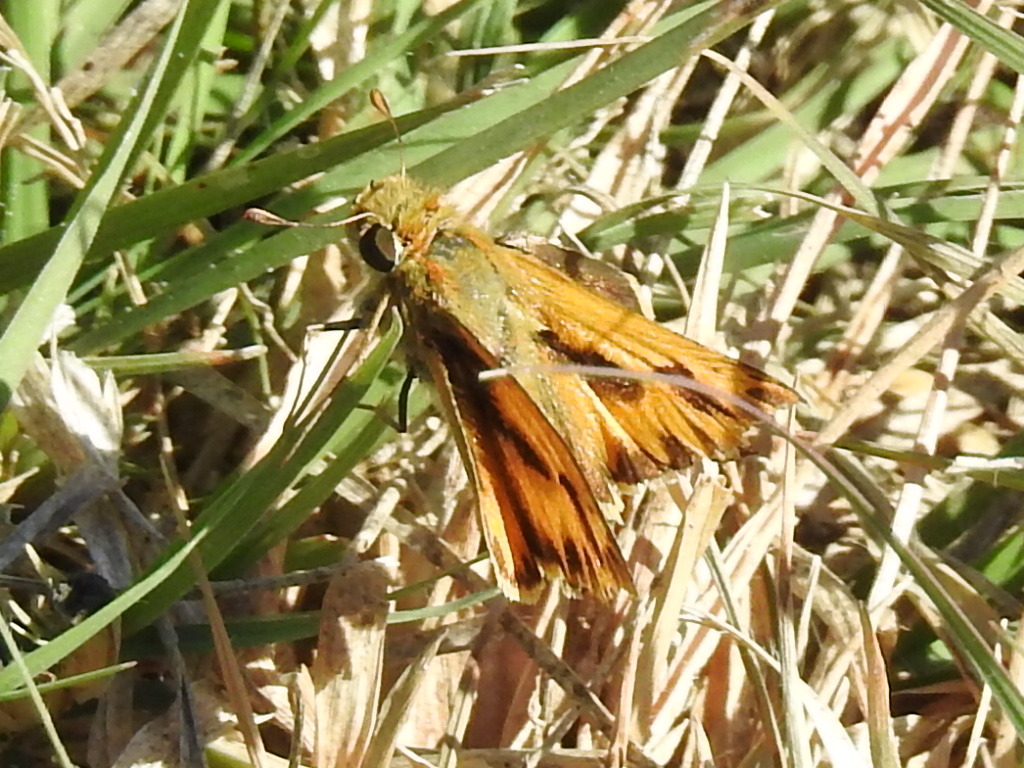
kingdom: Animalia
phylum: Arthropoda
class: Insecta
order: Lepidoptera
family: Hesperiidae
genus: Hylephila
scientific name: Hylephila phyleus
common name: Fiery skipper
